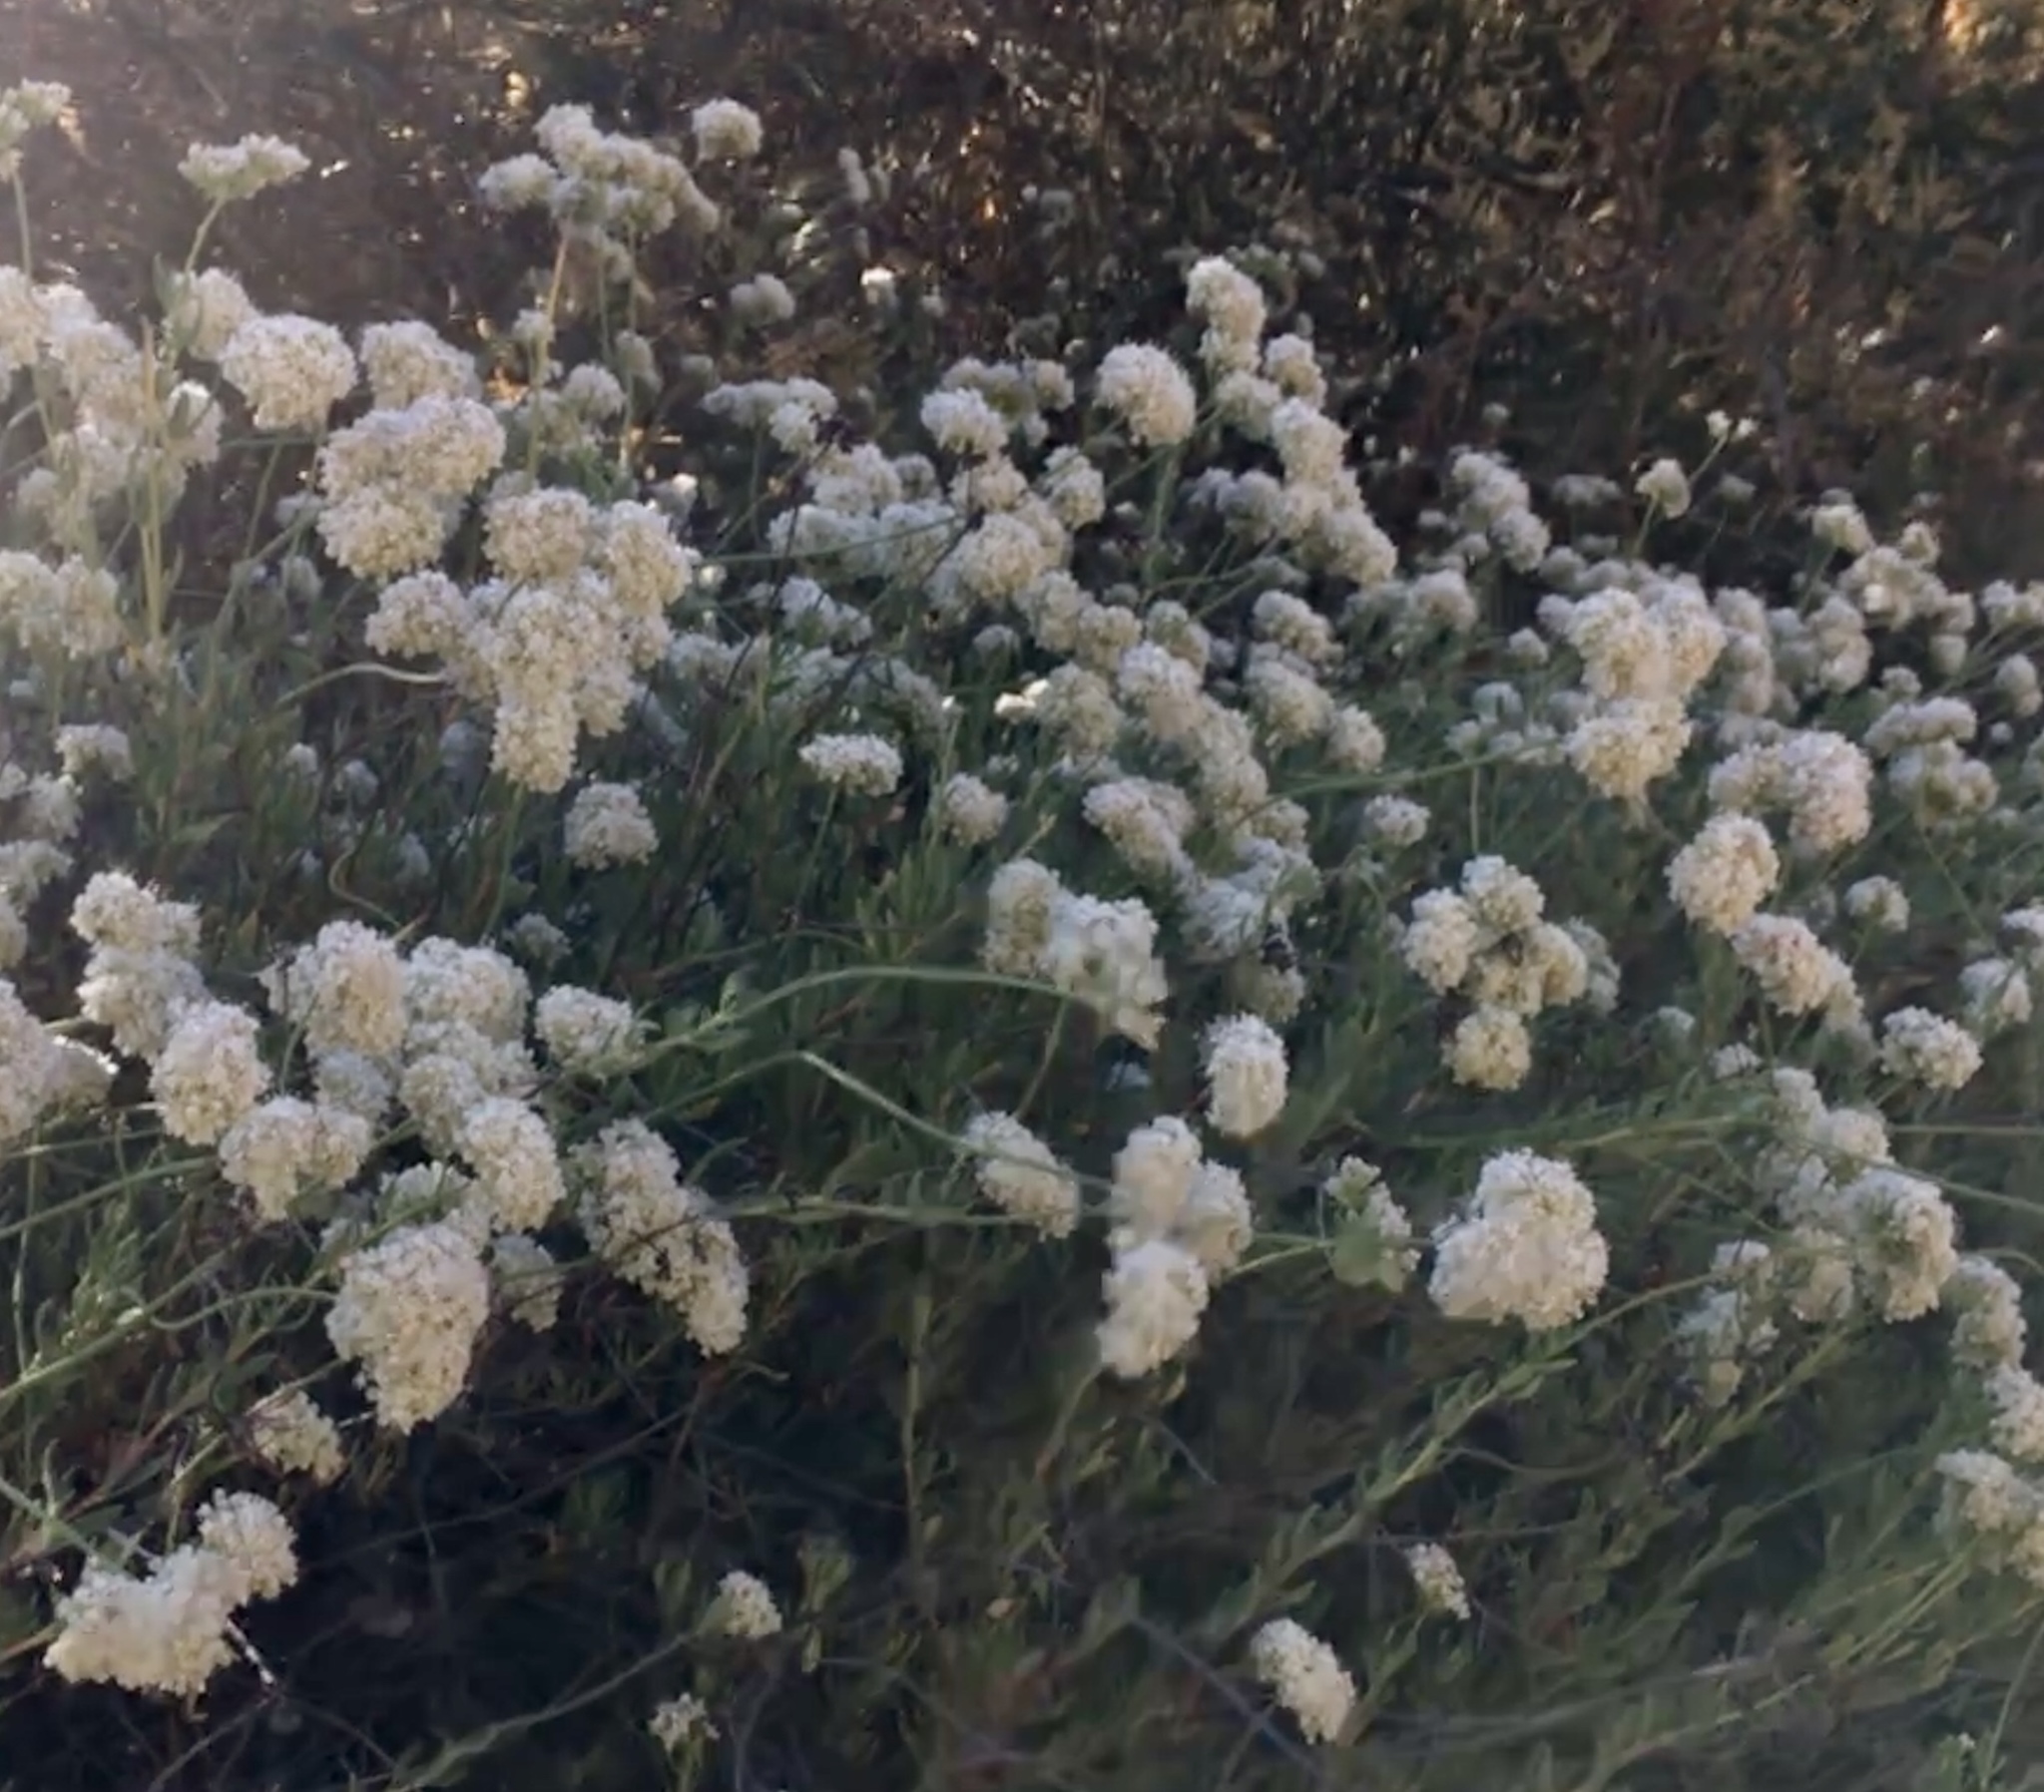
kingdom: Plantae
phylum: Tracheophyta
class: Magnoliopsida
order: Caryophyllales
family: Polygonaceae
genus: Eriogonum
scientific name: Eriogonum fasciculatum
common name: California wild buckwheat
